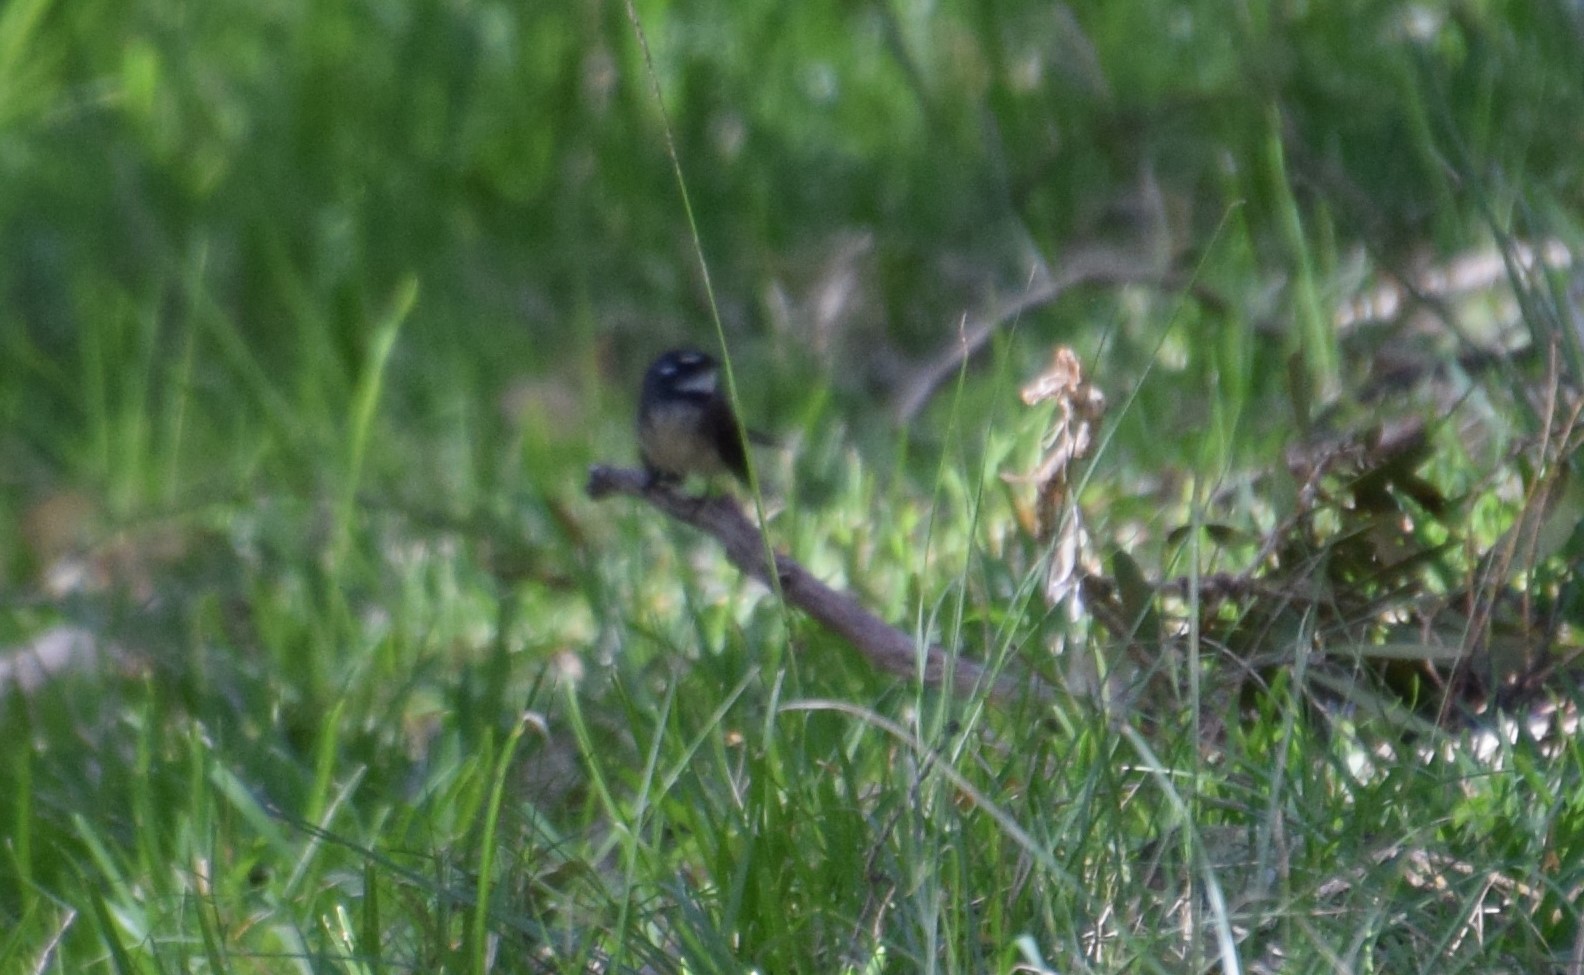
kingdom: Animalia
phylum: Chordata
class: Aves
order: Passeriformes
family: Rhipiduridae
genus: Rhipidura
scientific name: Rhipidura albiscapa
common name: Grey fantail
